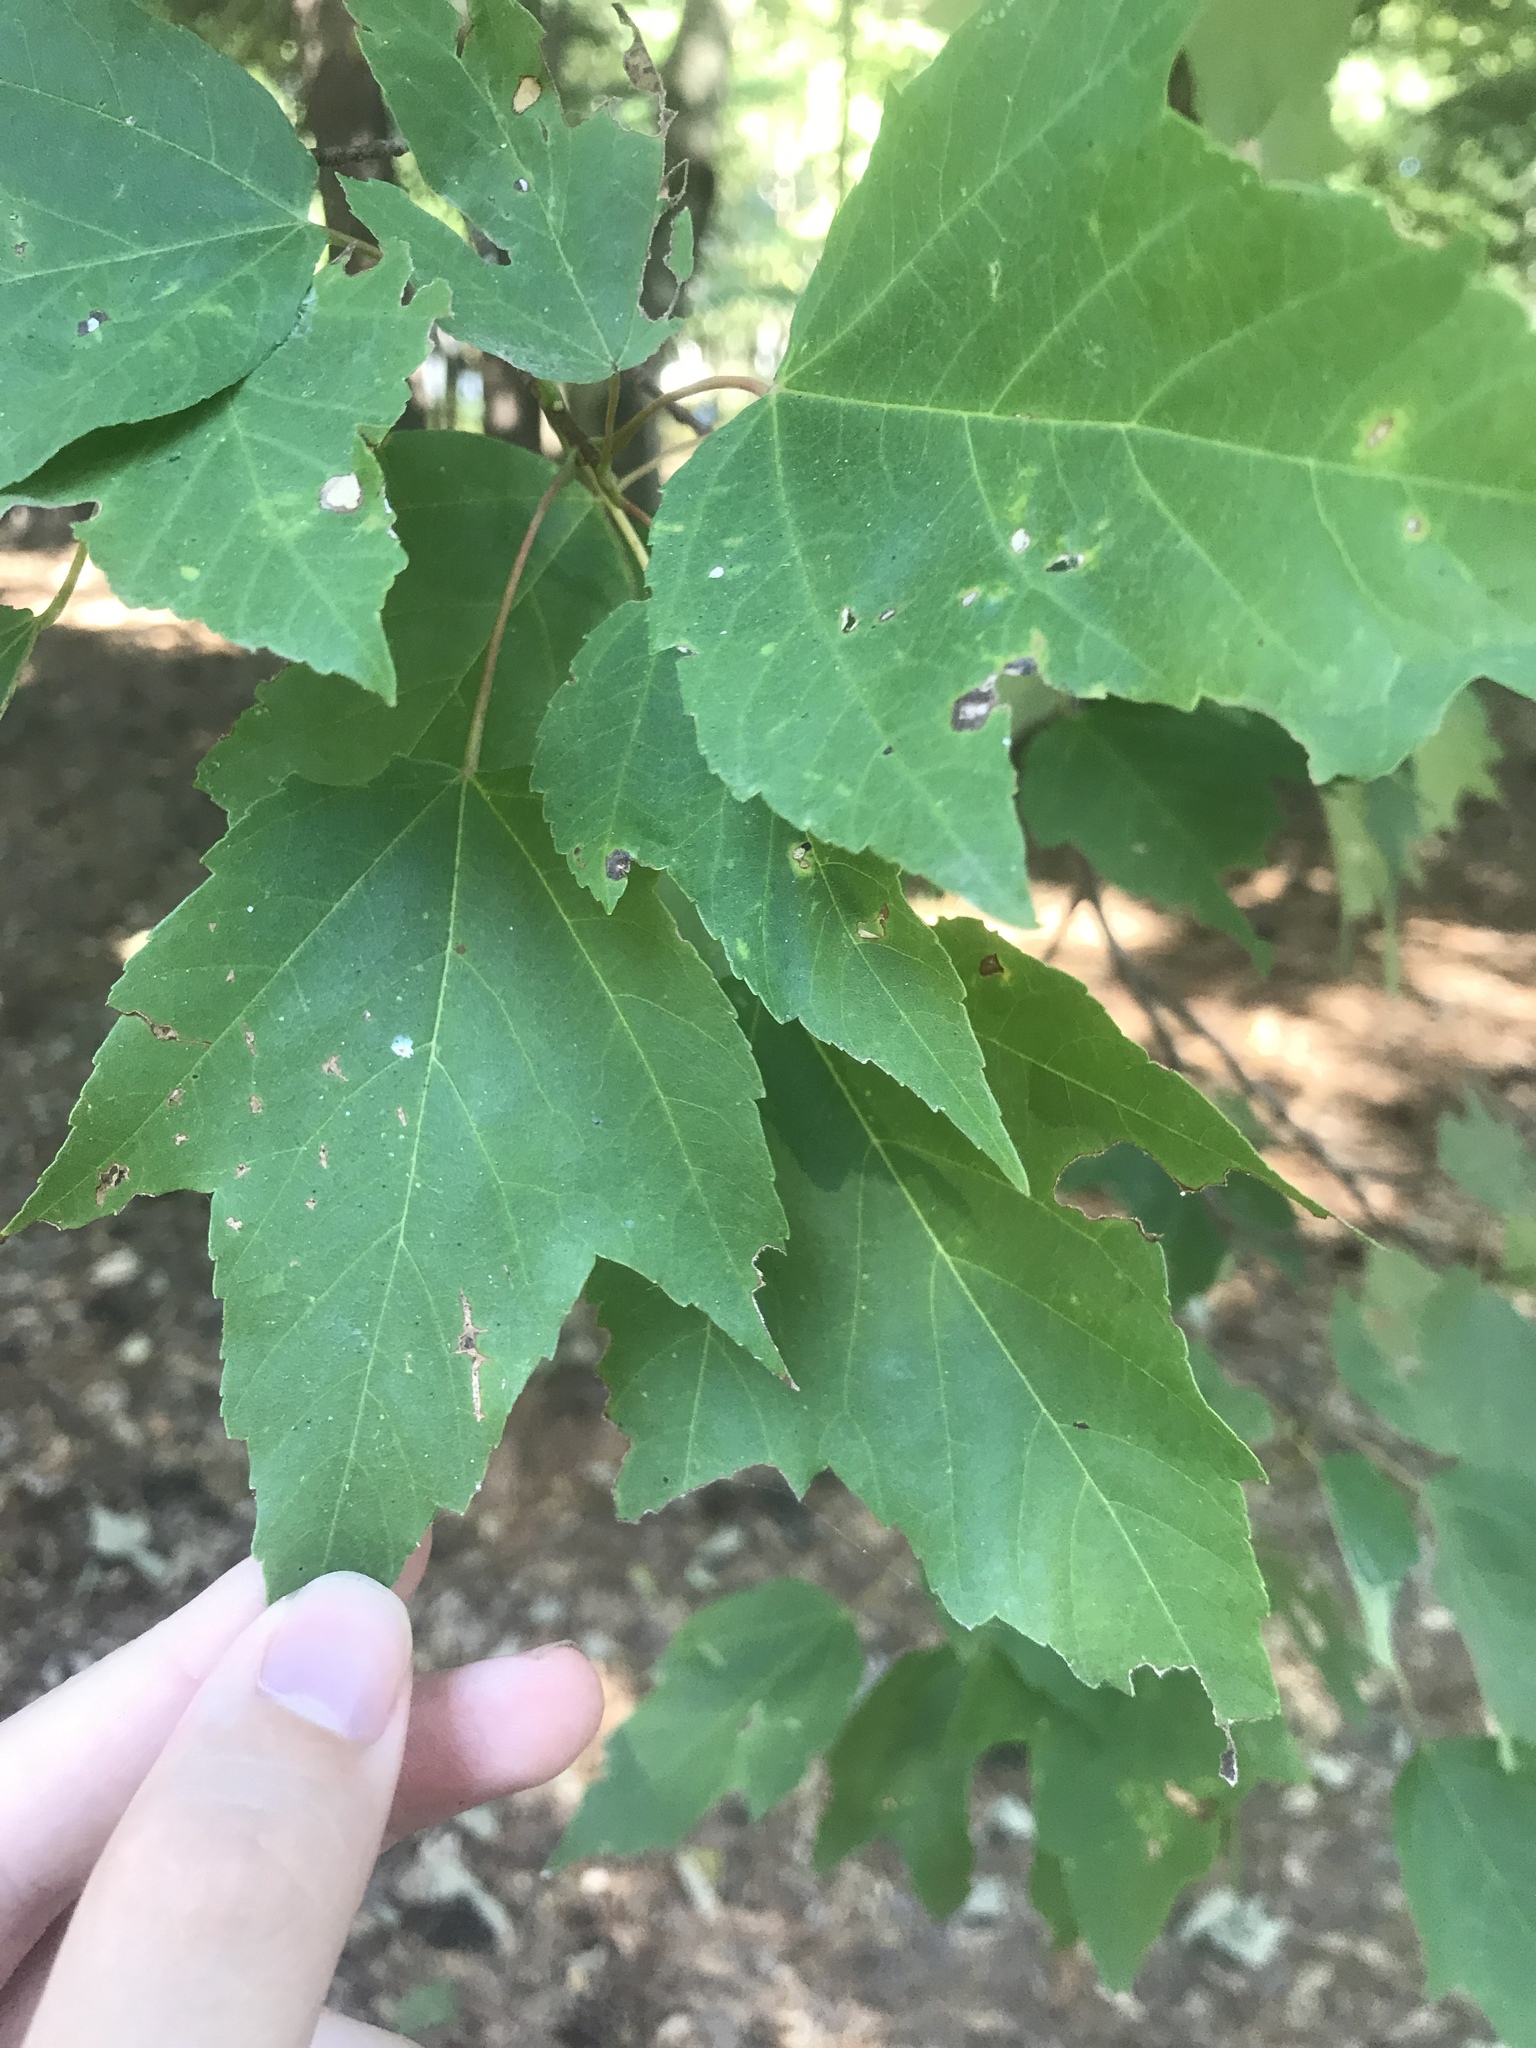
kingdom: Plantae
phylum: Tracheophyta
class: Magnoliopsida
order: Sapindales
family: Sapindaceae
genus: Acer
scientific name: Acer rubrum
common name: Red maple
